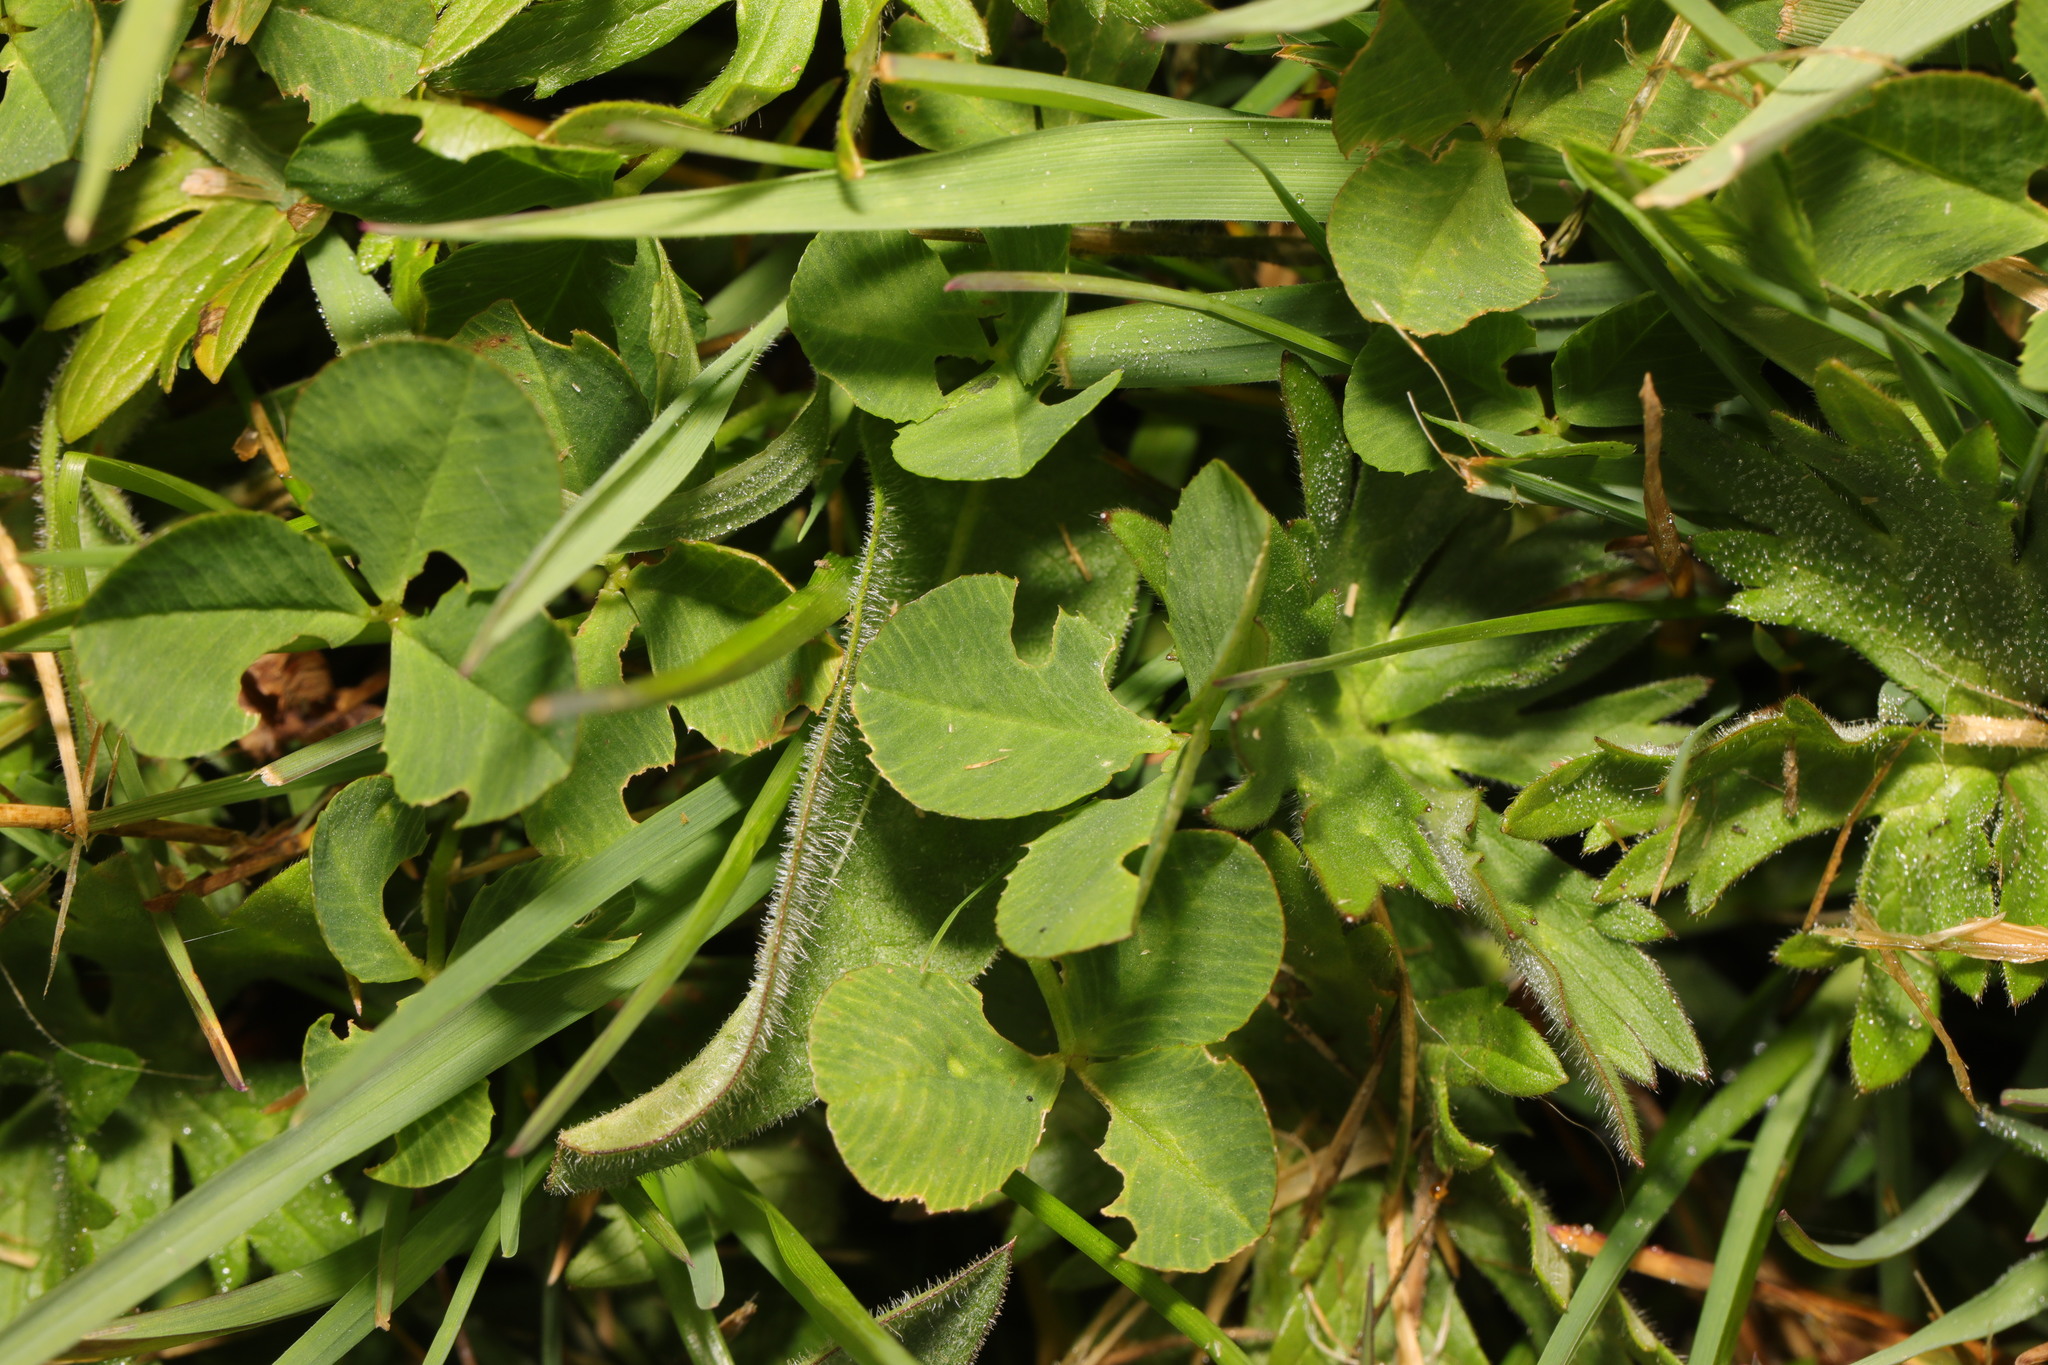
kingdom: Plantae
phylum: Tracheophyta
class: Magnoliopsida
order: Fabales
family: Fabaceae
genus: Trifolium
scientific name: Trifolium repens
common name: White clover
